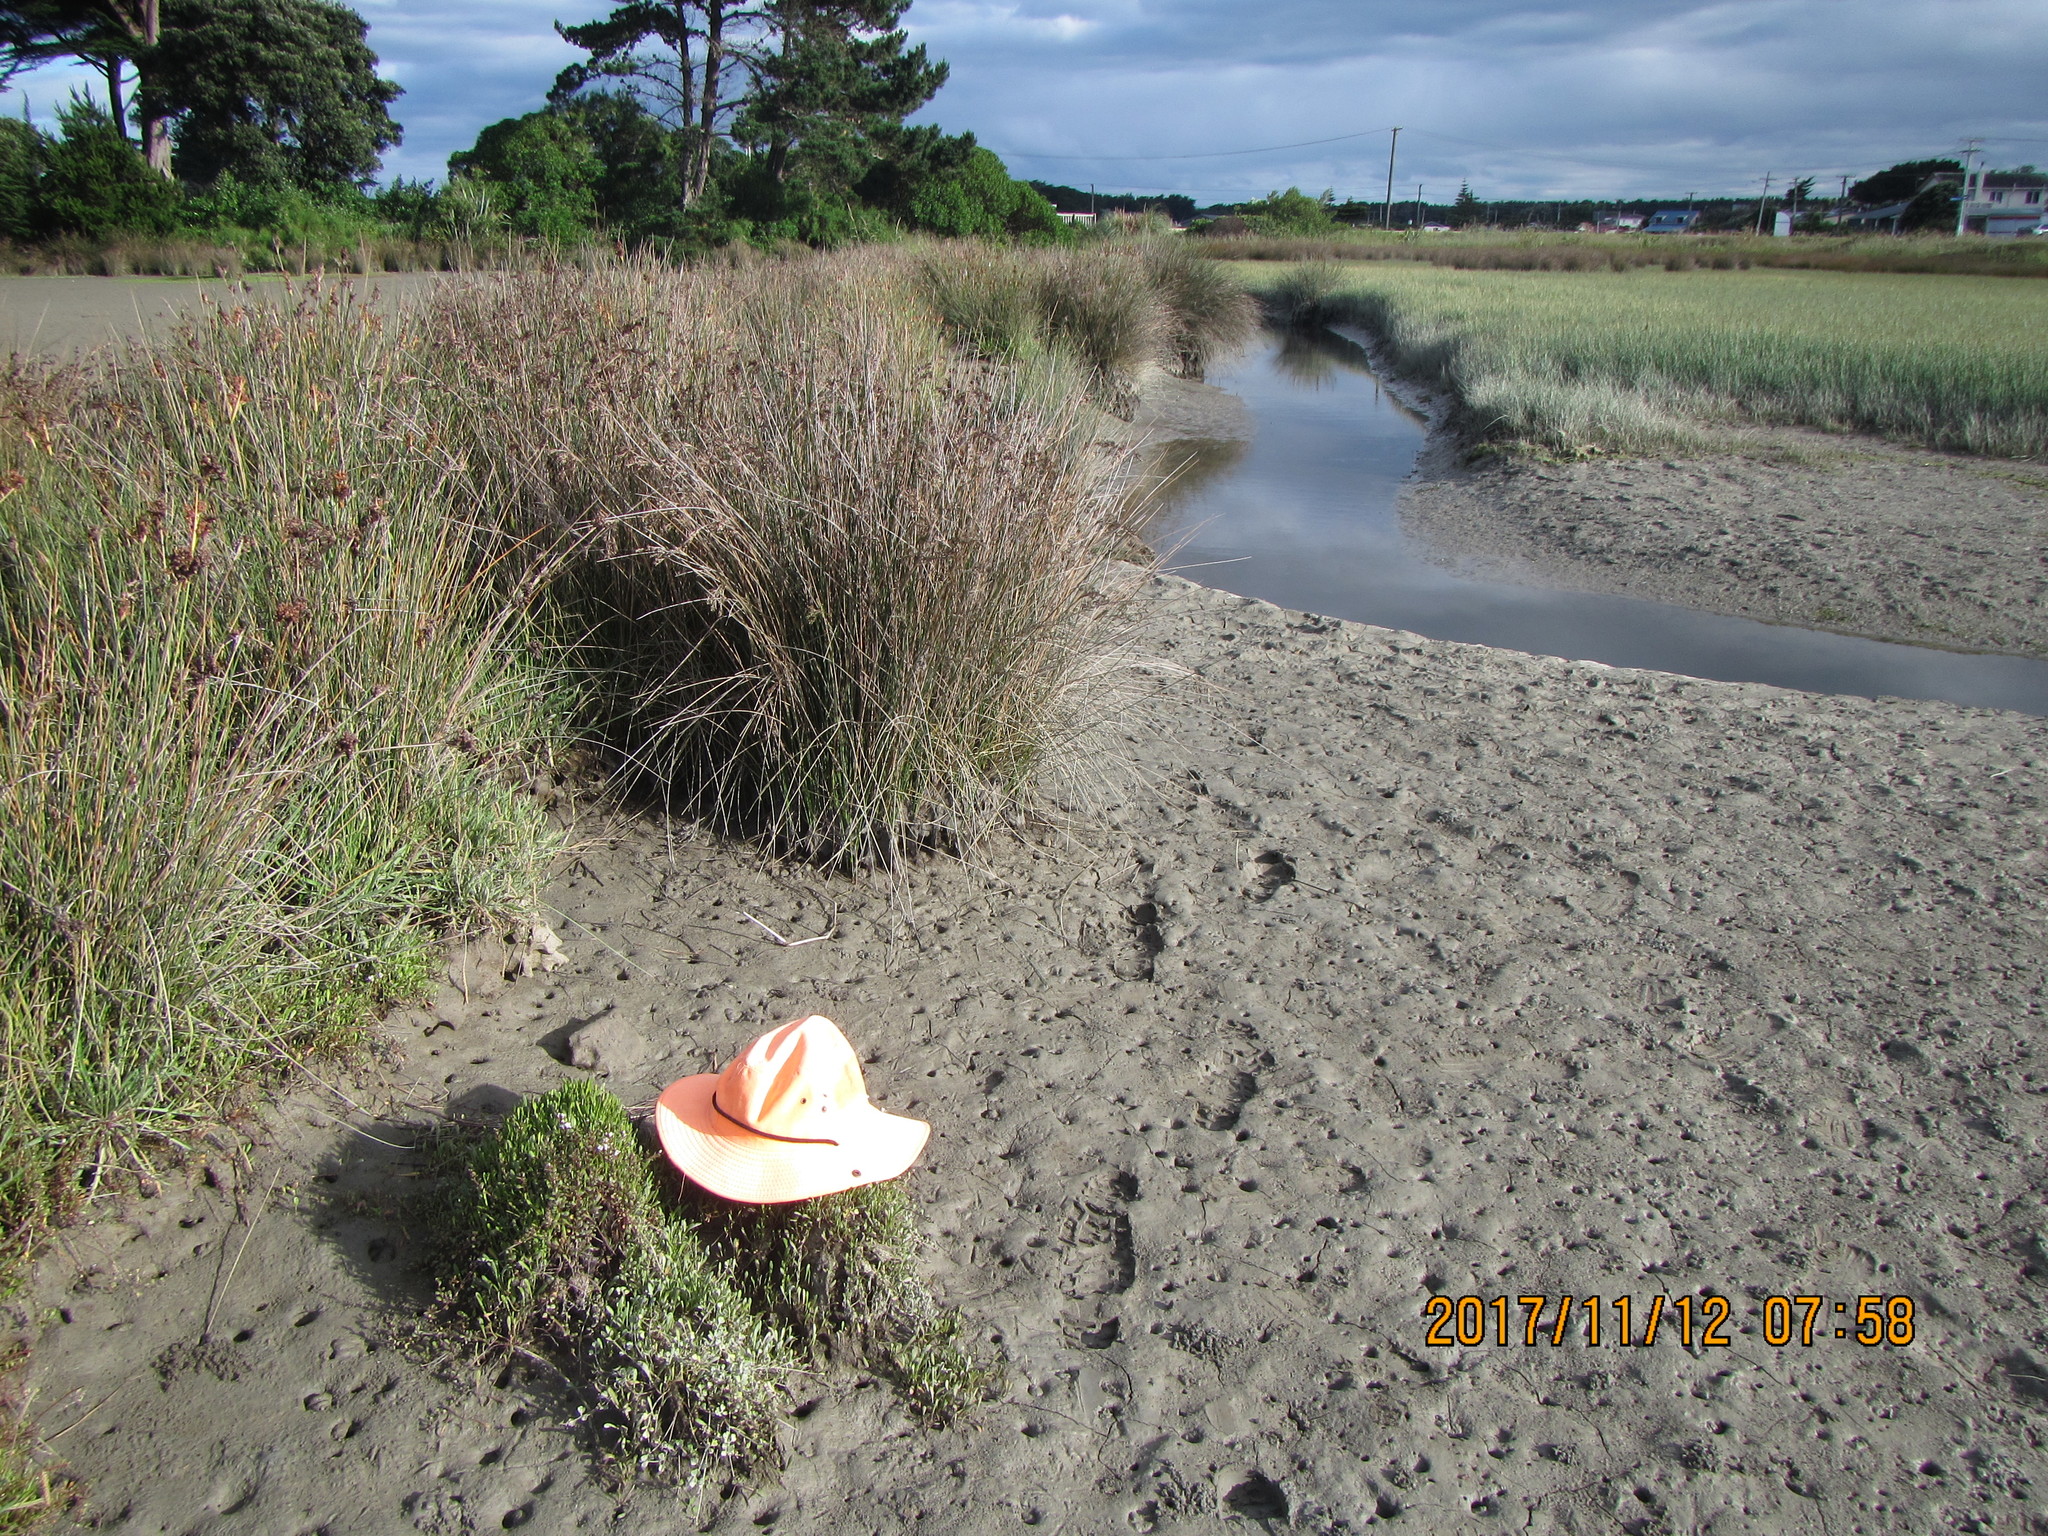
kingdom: Plantae
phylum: Tracheophyta
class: Magnoliopsida
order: Ericales
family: Primulaceae
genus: Samolus
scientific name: Samolus repens
